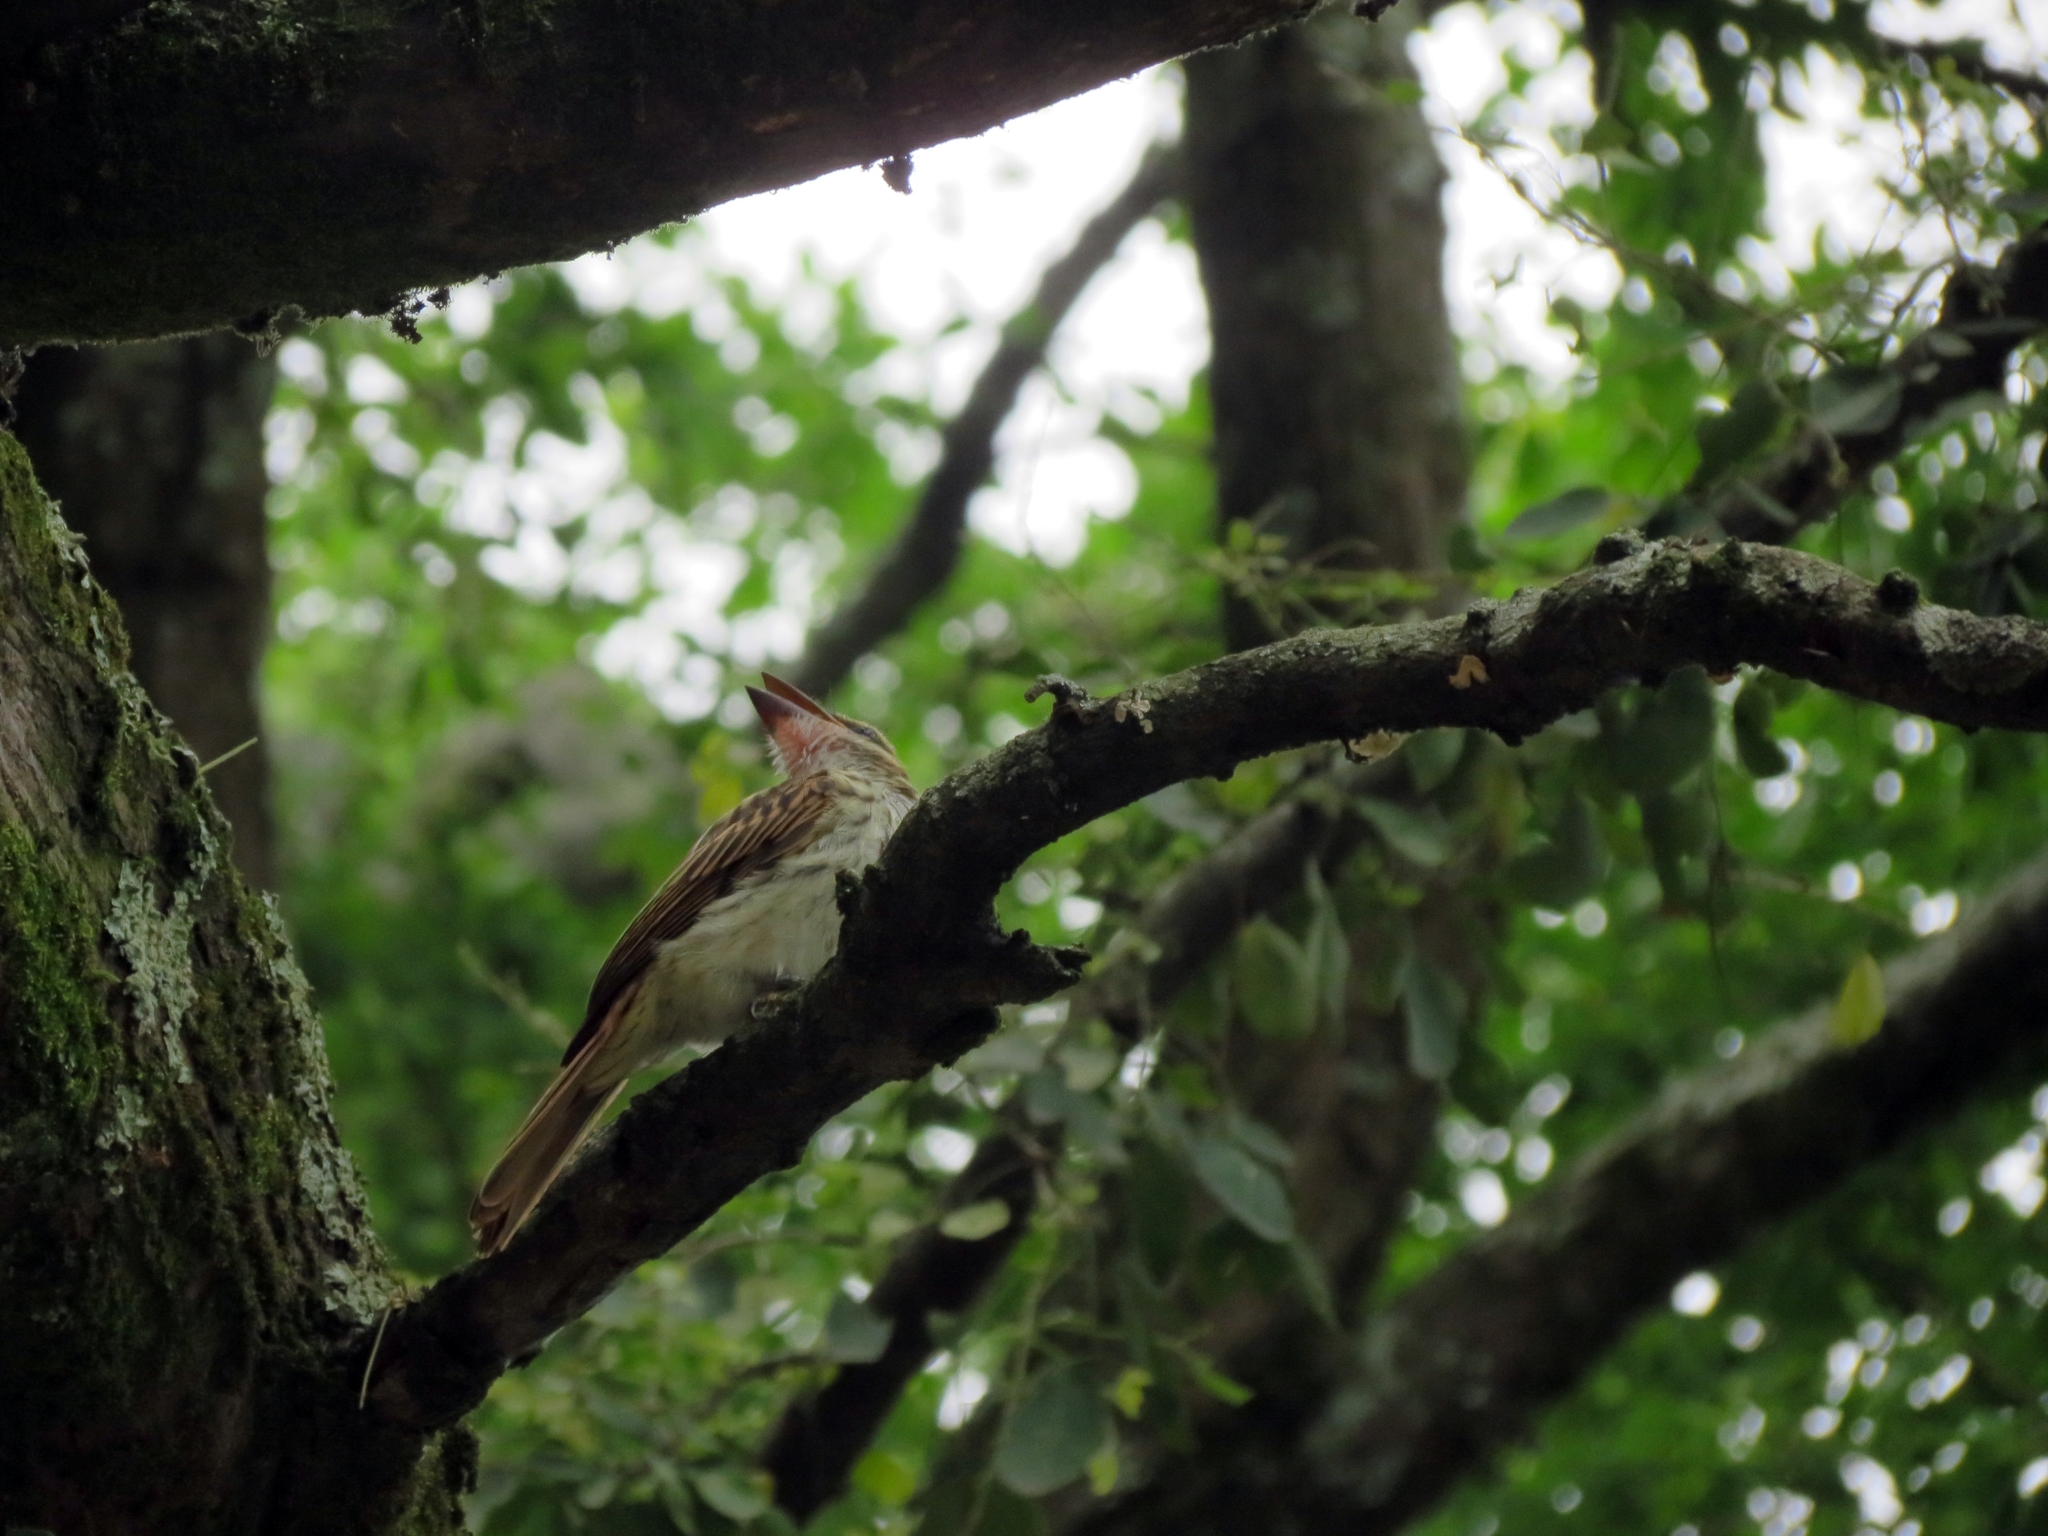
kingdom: Animalia
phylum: Chordata
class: Aves
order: Passeriformes
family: Tyrannidae
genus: Myiodynastes
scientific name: Myiodynastes maculatus
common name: Streaked flycatcher
